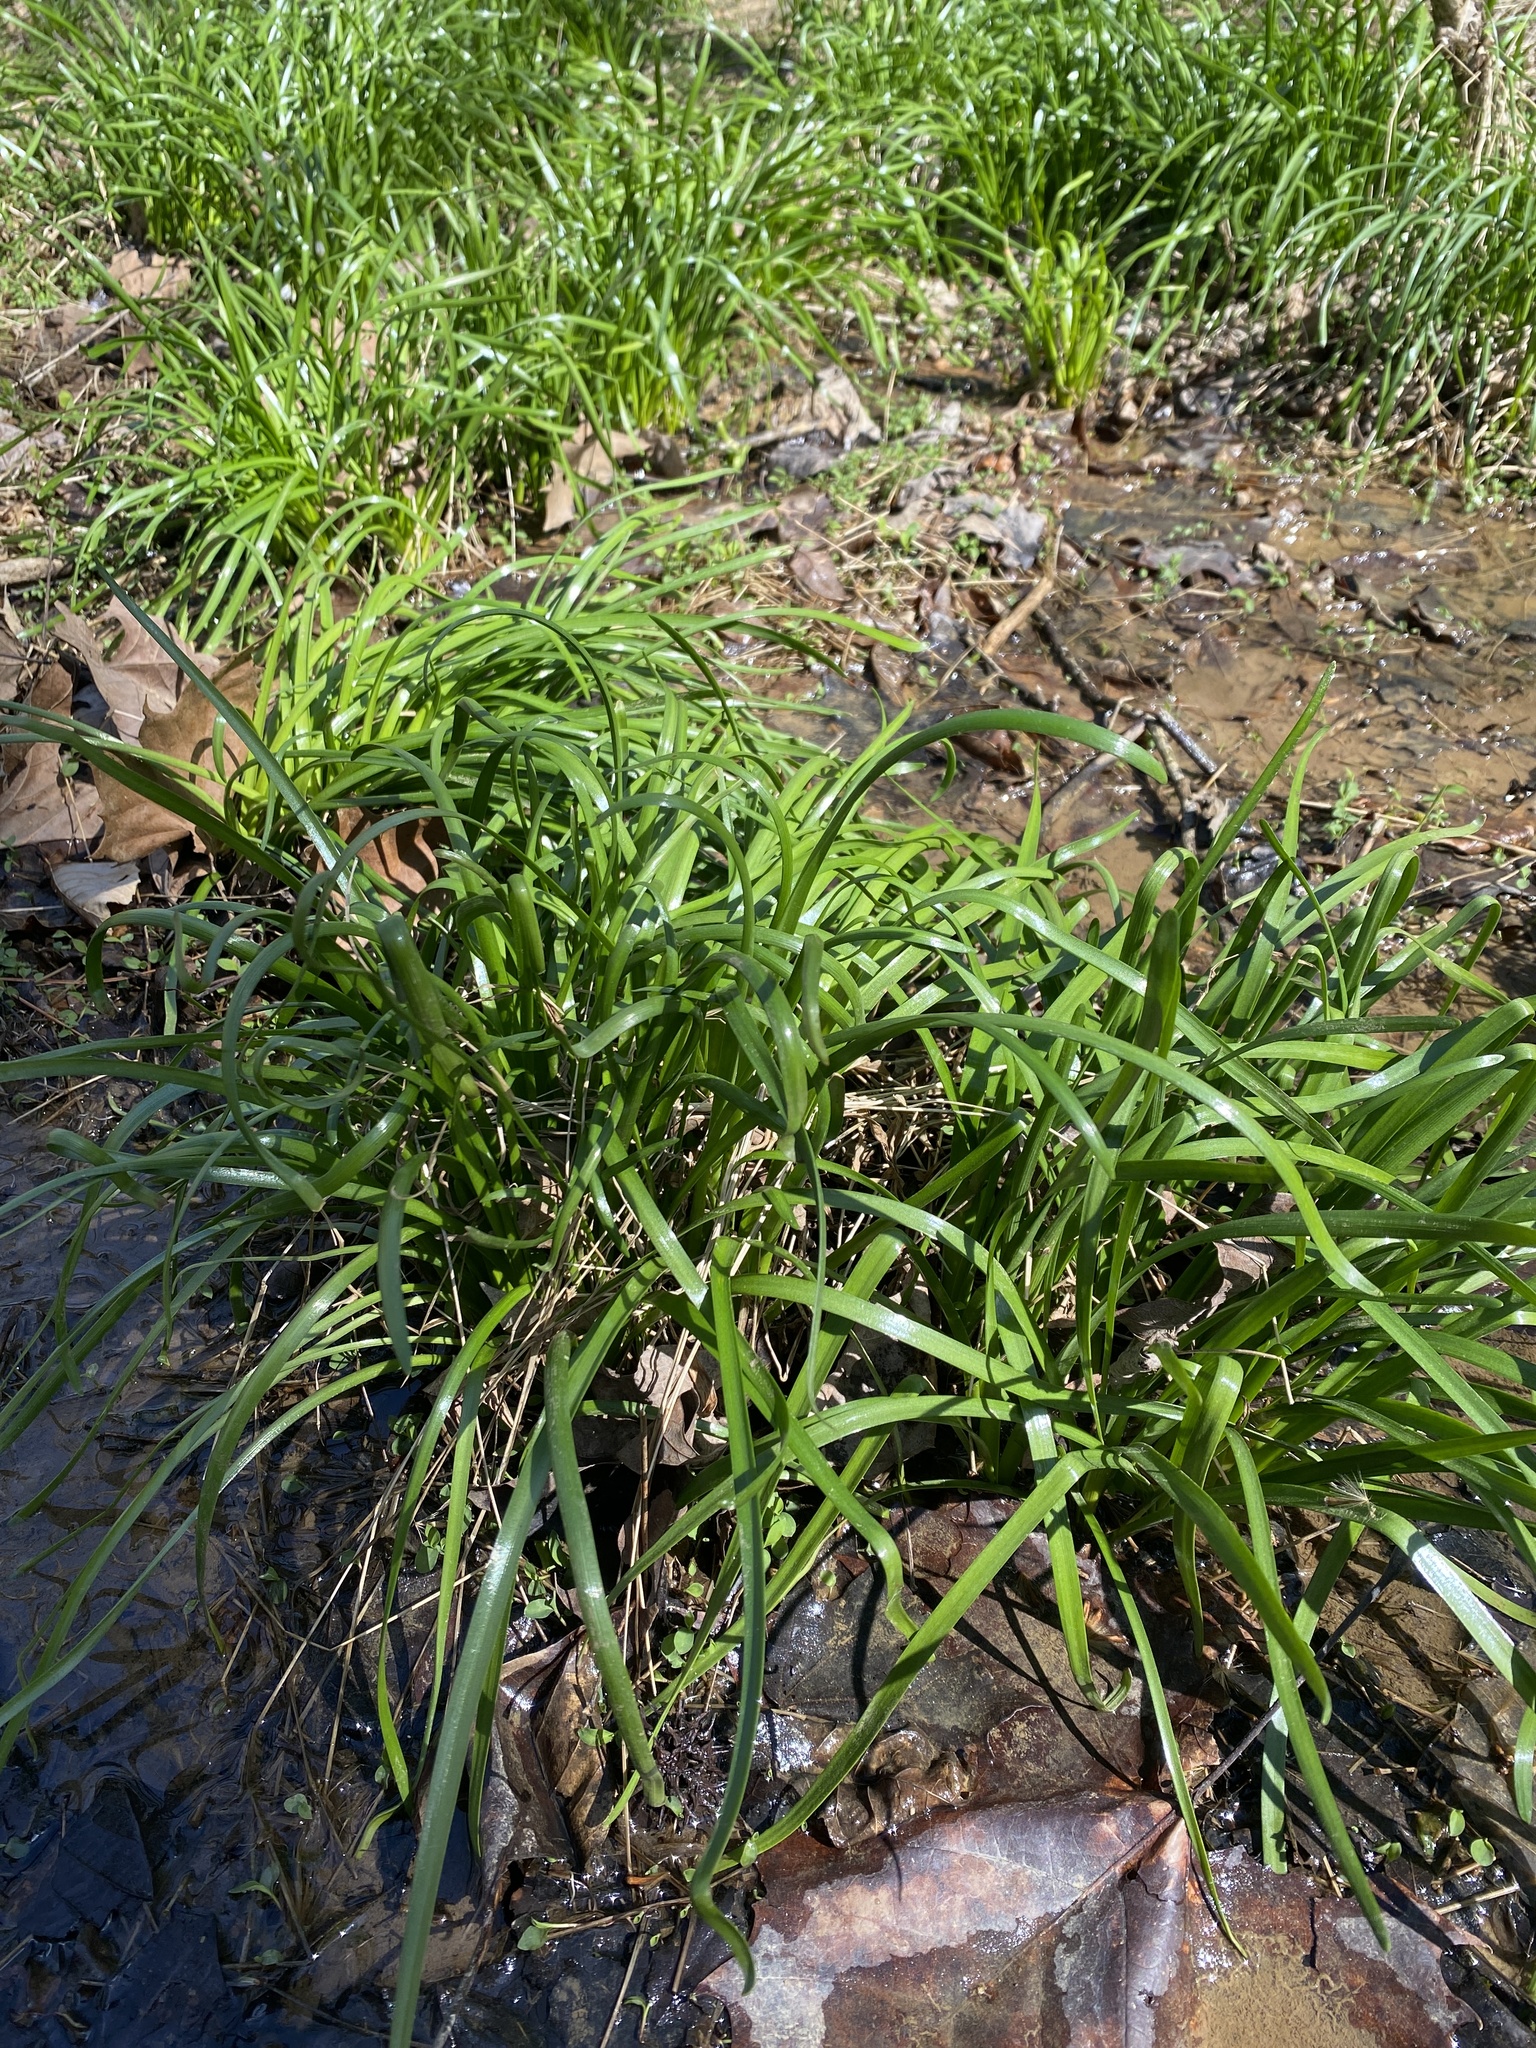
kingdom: Plantae
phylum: Tracheophyta
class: Liliopsida
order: Asparagales
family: Amaryllidaceae
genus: Zephyranthes
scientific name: Zephyranthes atamasco
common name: Atamasco lily
